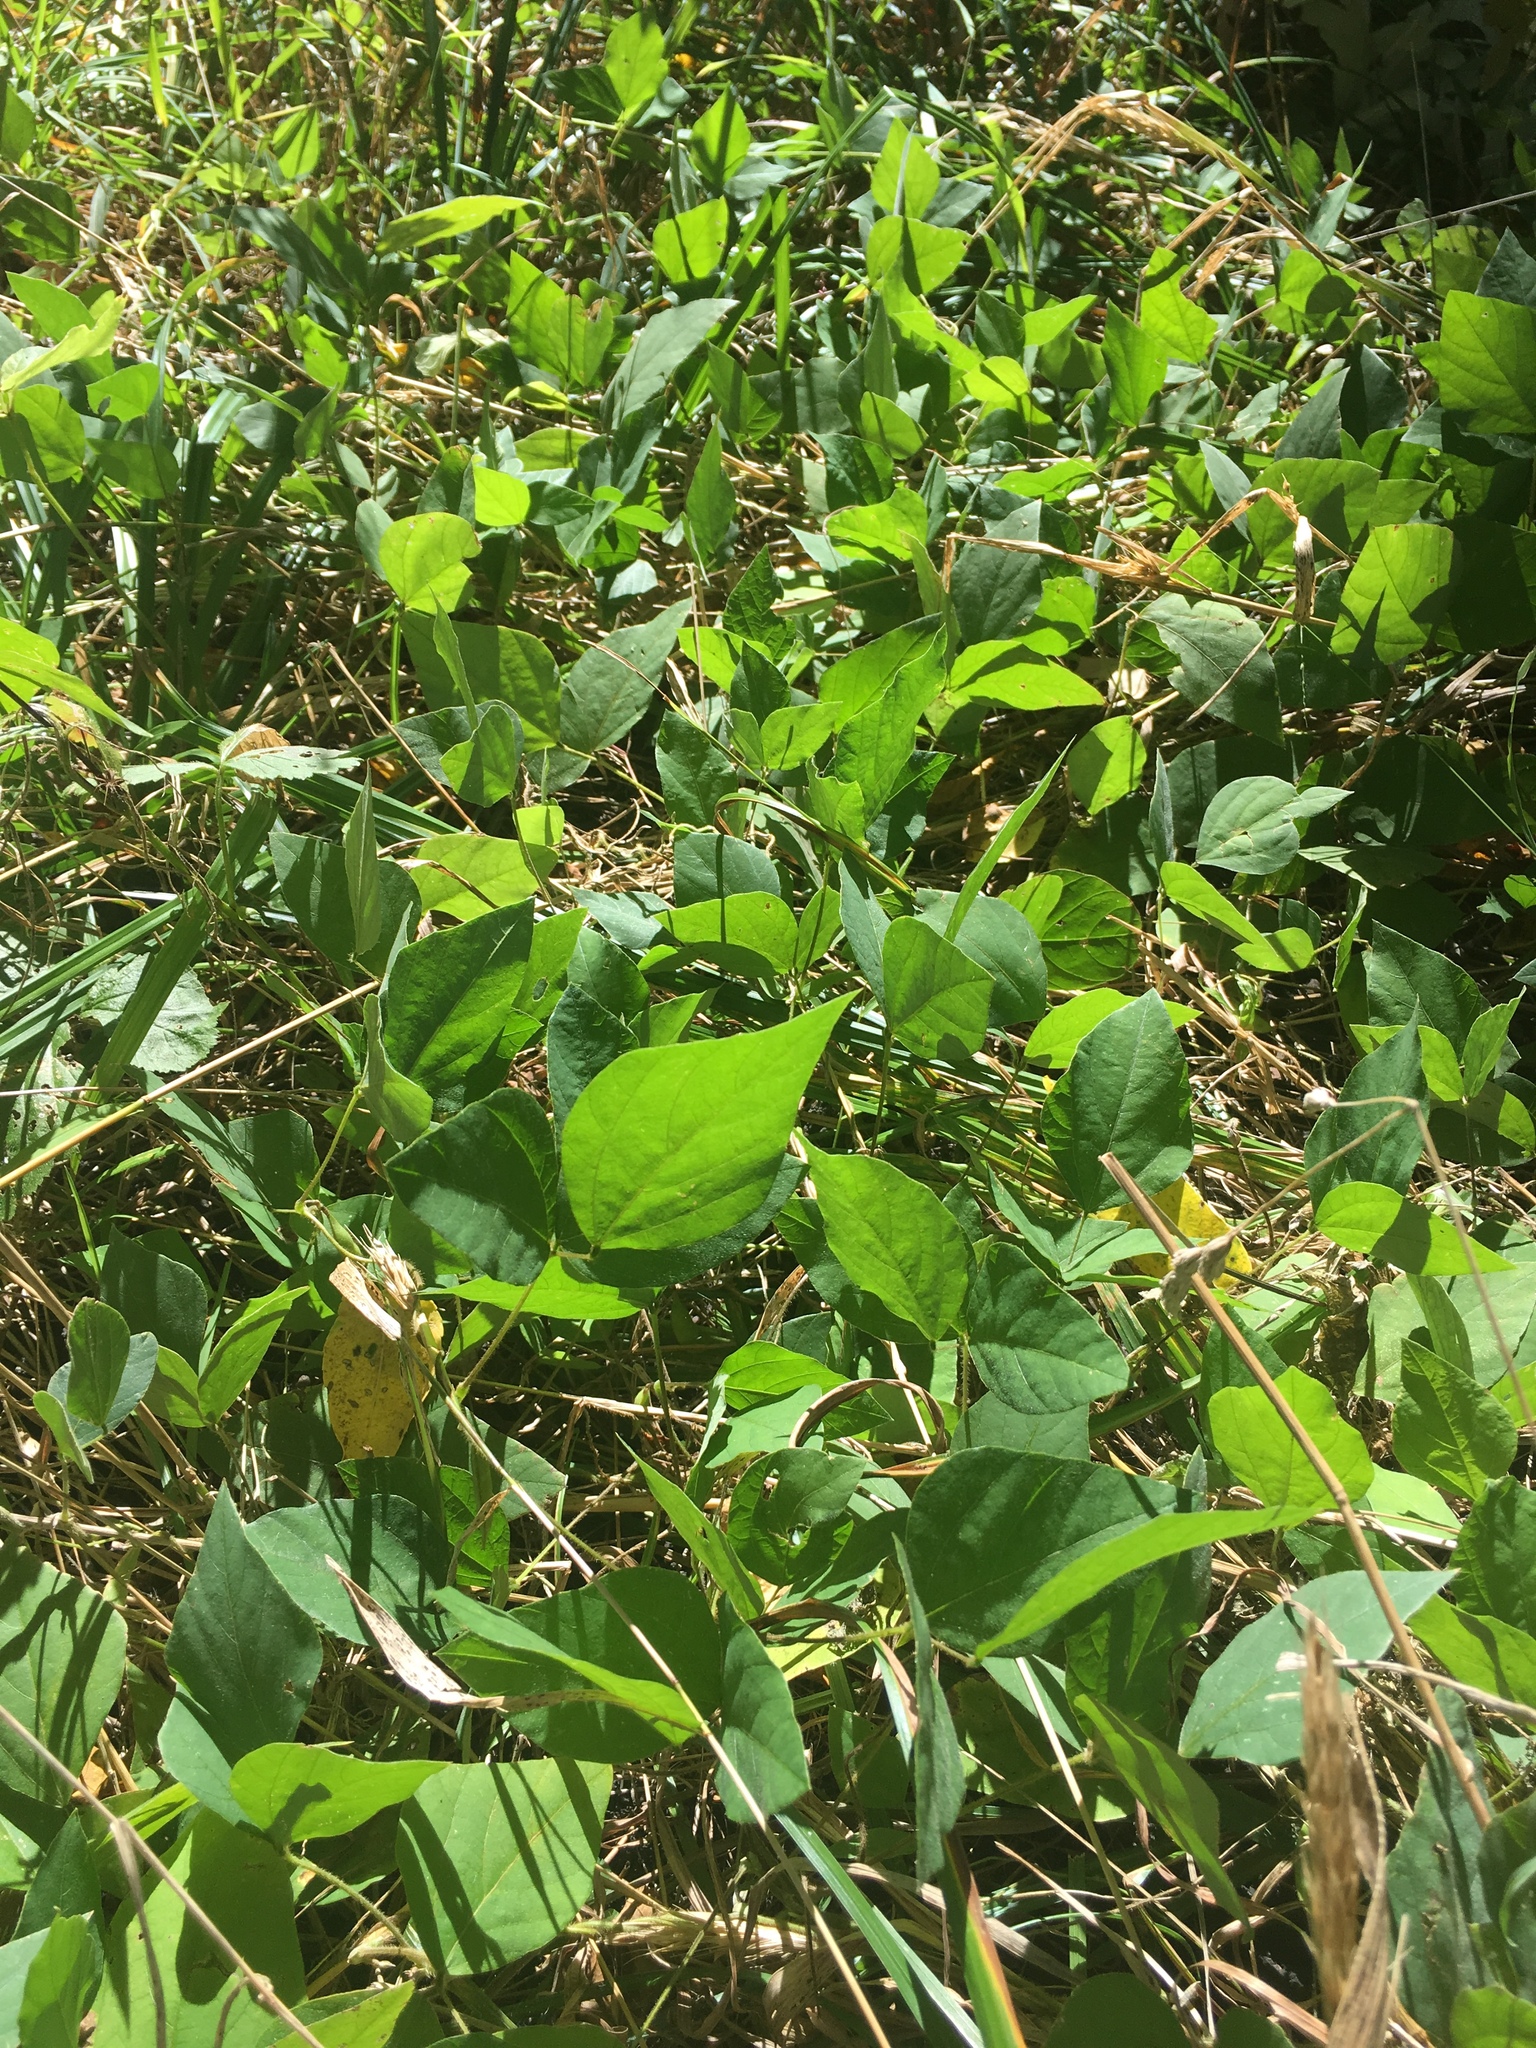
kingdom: Plantae
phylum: Tracheophyta
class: Magnoliopsida
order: Fabales
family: Fabaceae
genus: Amphicarpaea
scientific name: Amphicarpaea bracteata
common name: American hog peanut
